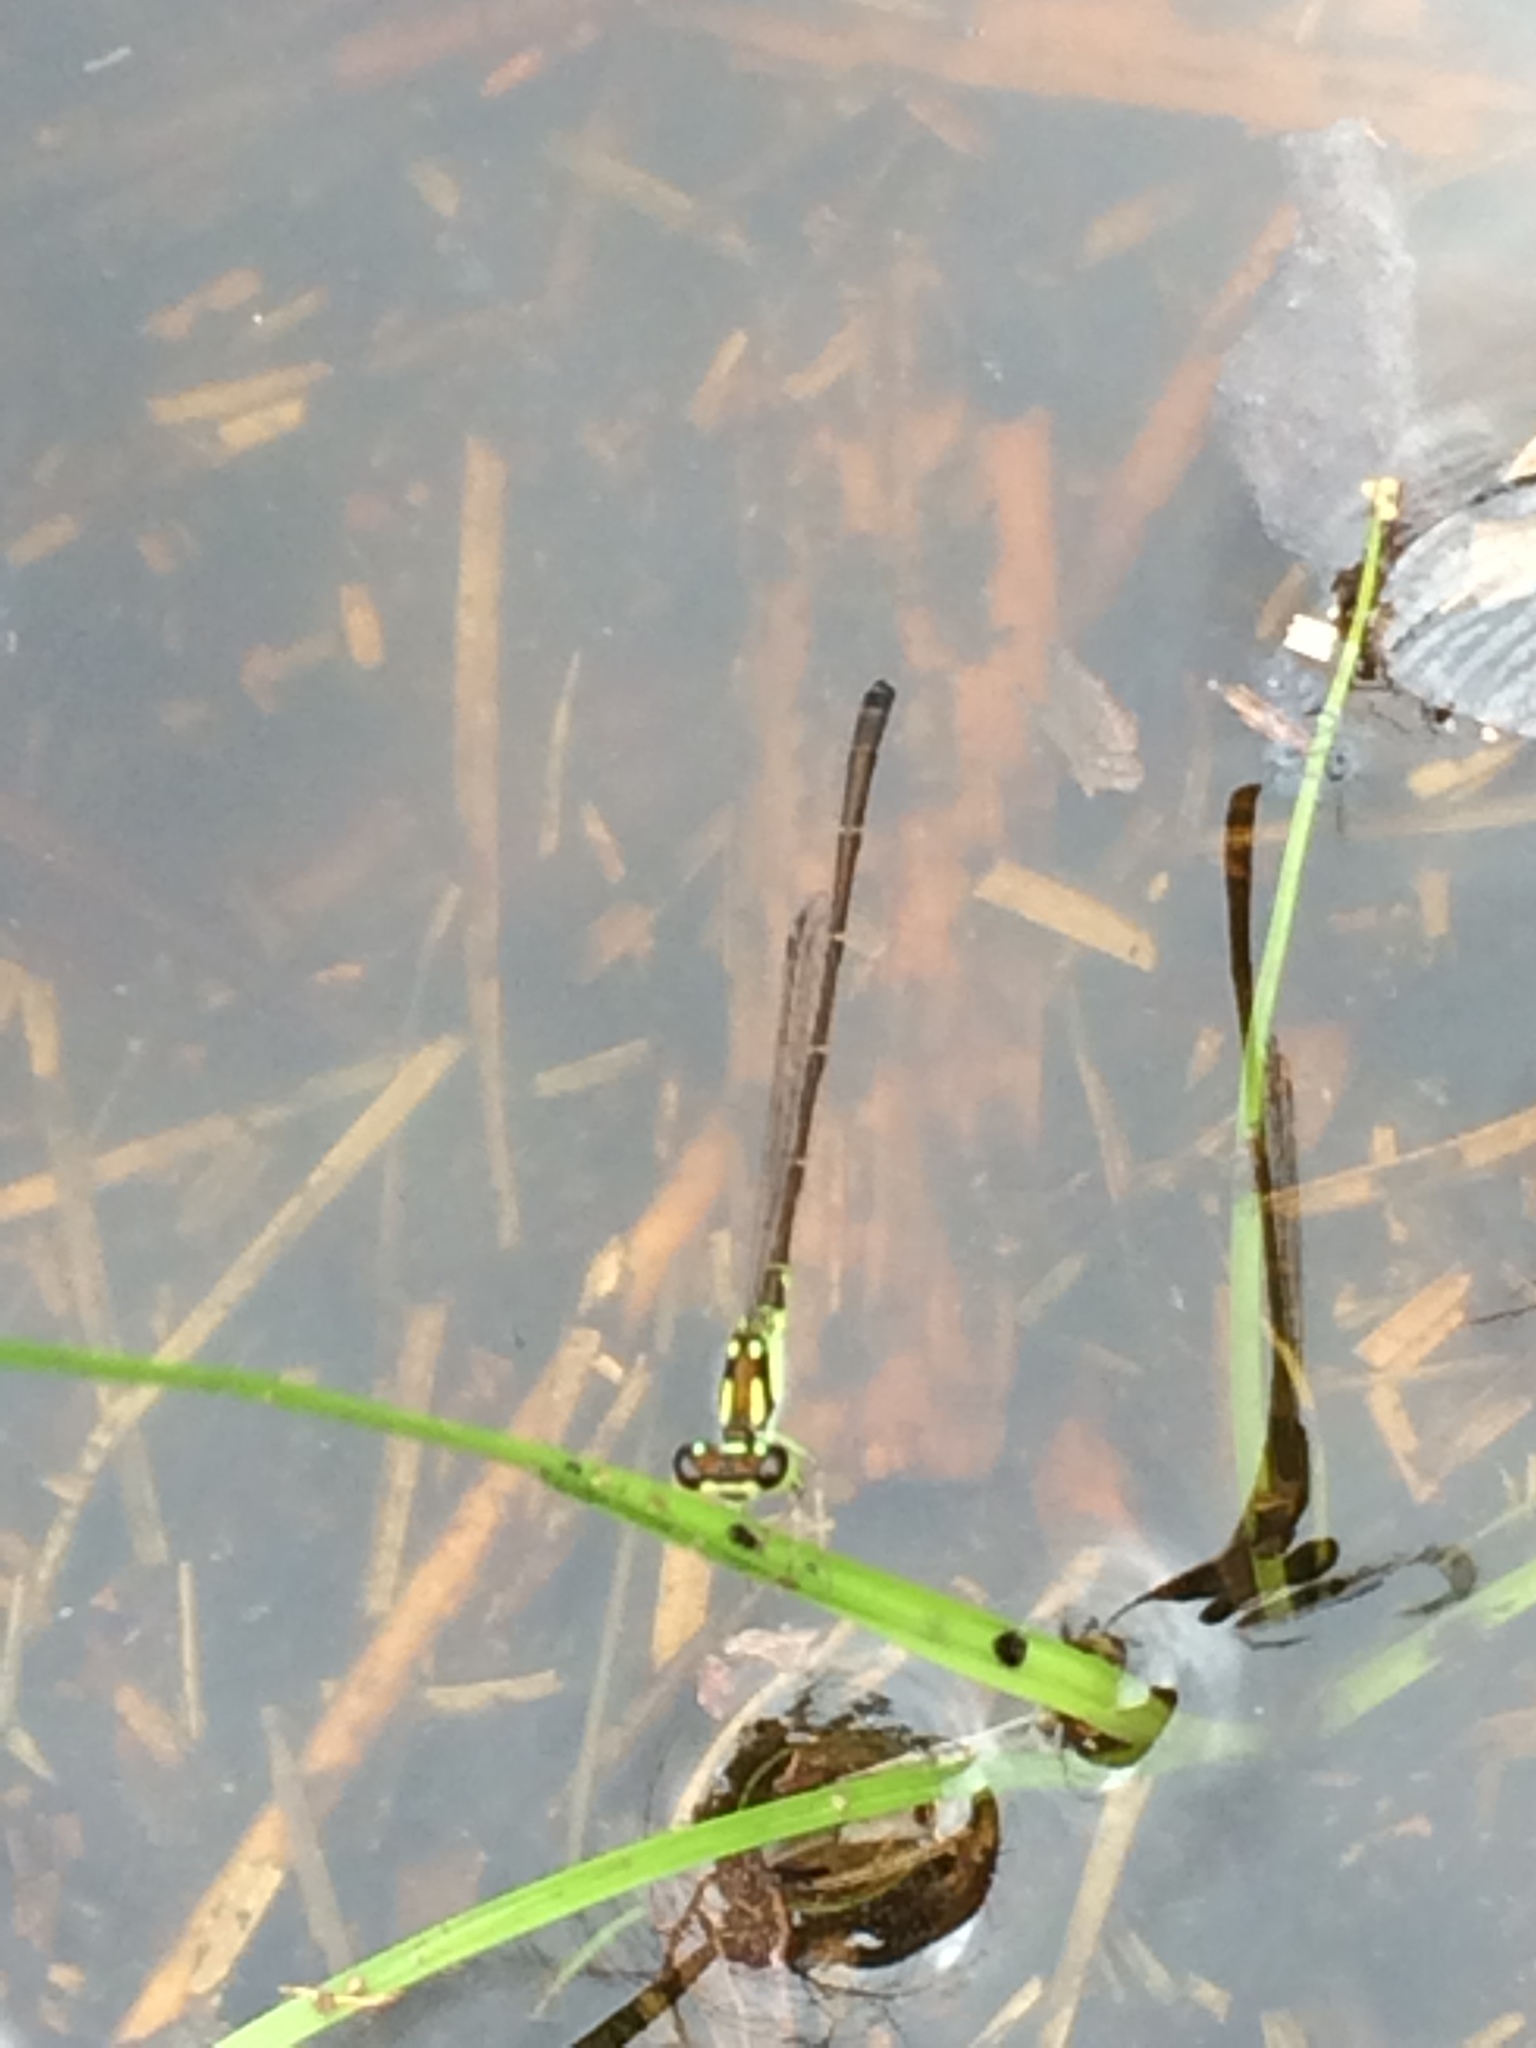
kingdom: Animalia
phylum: Arthropoda
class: Insecta
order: Odonata
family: Coenagrionidae
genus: Ischnura
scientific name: Ischnura posita
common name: Fragile forktail
